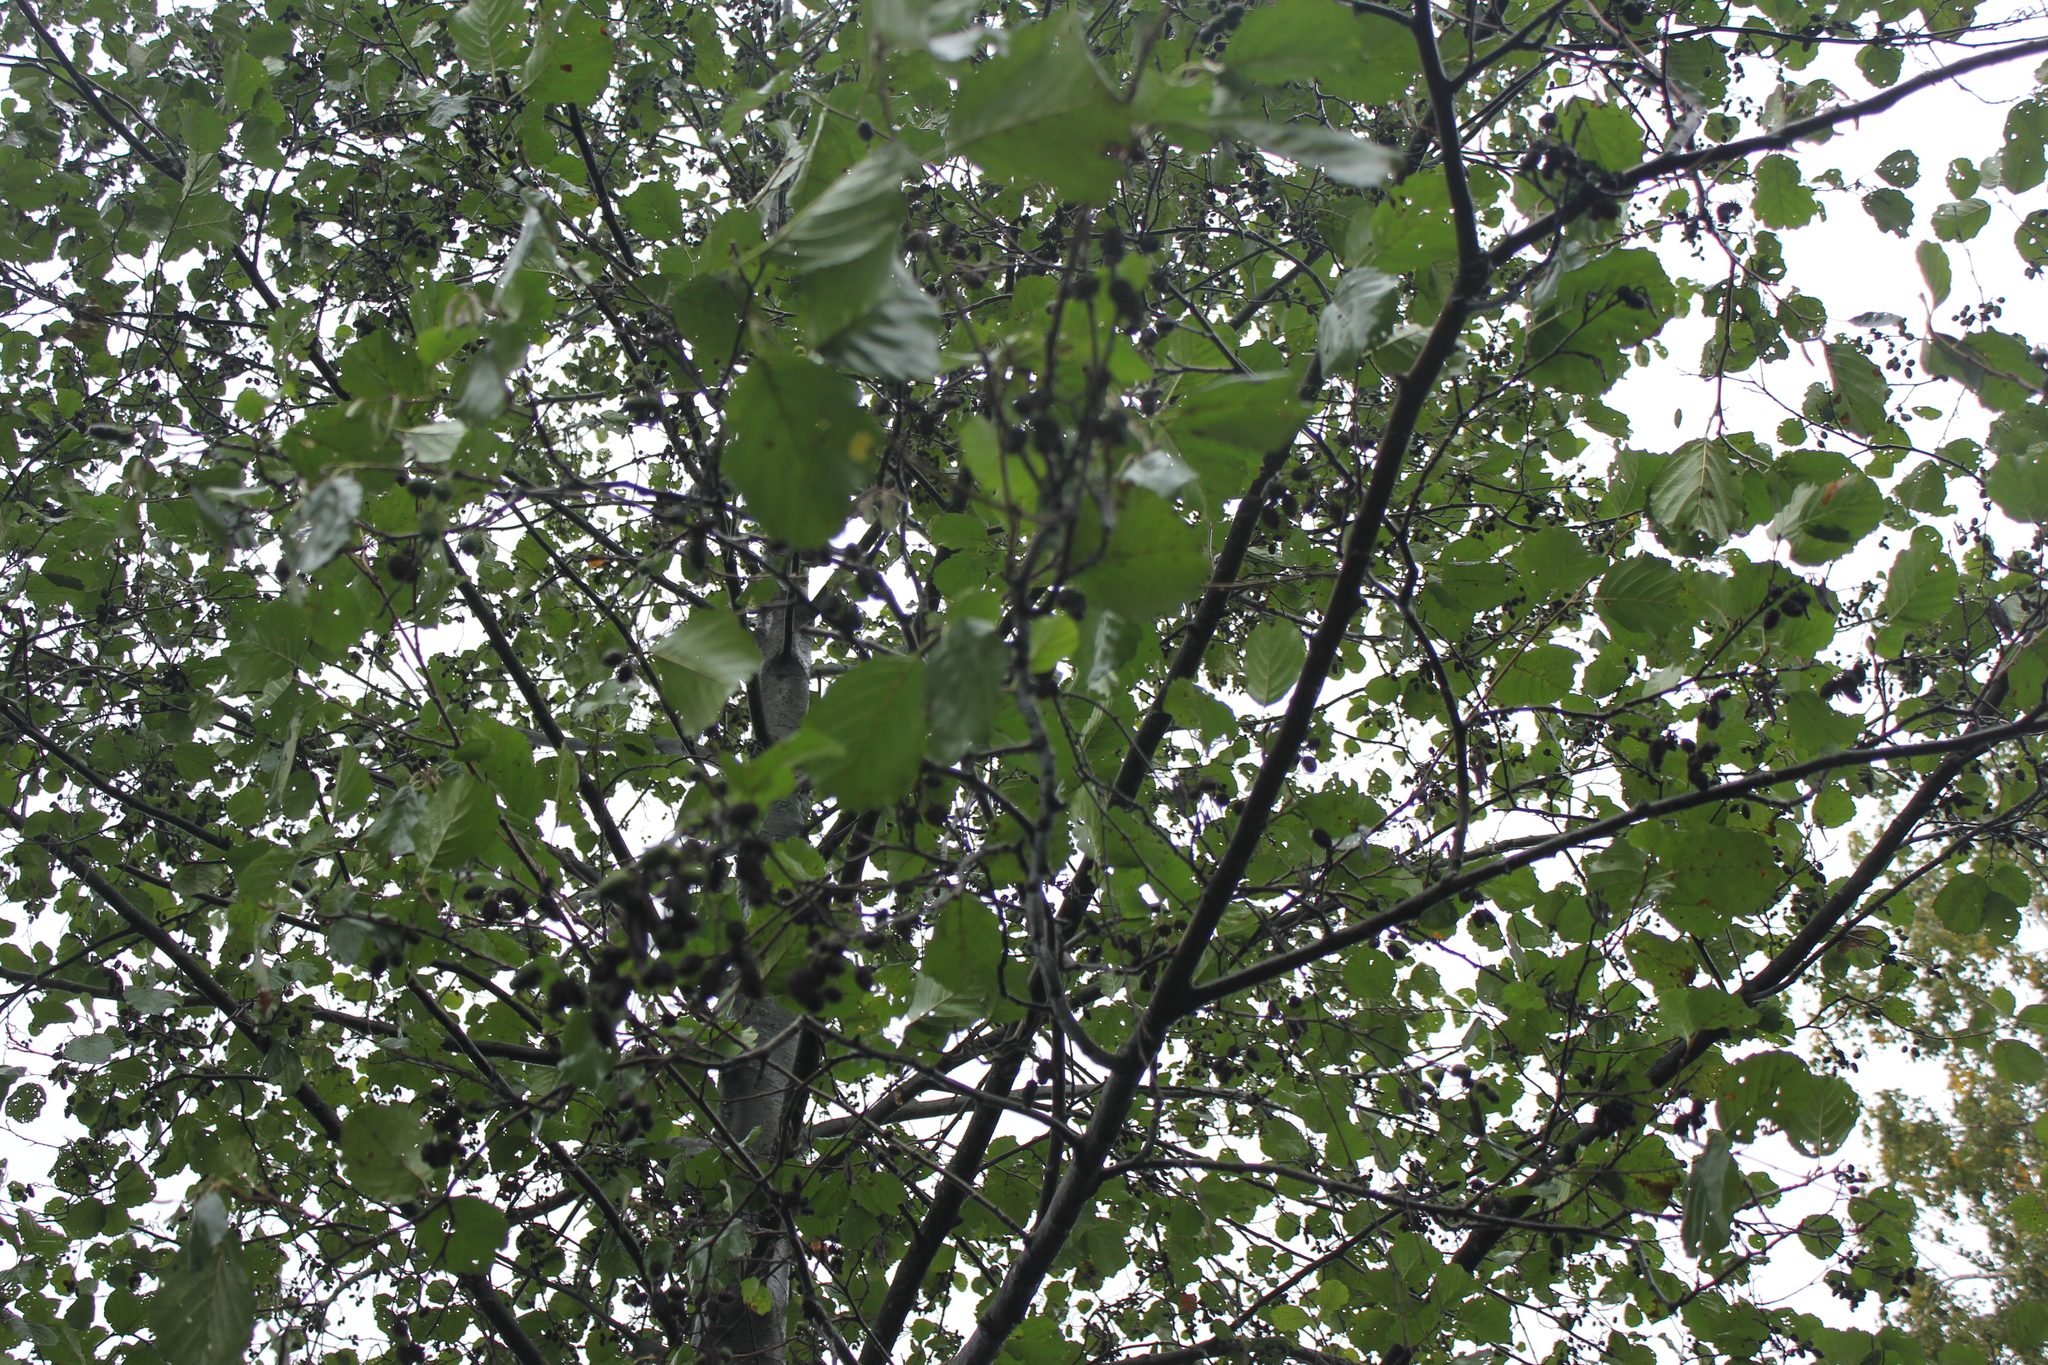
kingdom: Plantae
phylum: Tracheophyta
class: Magnoliopsida
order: Fagales
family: Betulaceae
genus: Alnus
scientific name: Alnus glutinosa
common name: Black alder
